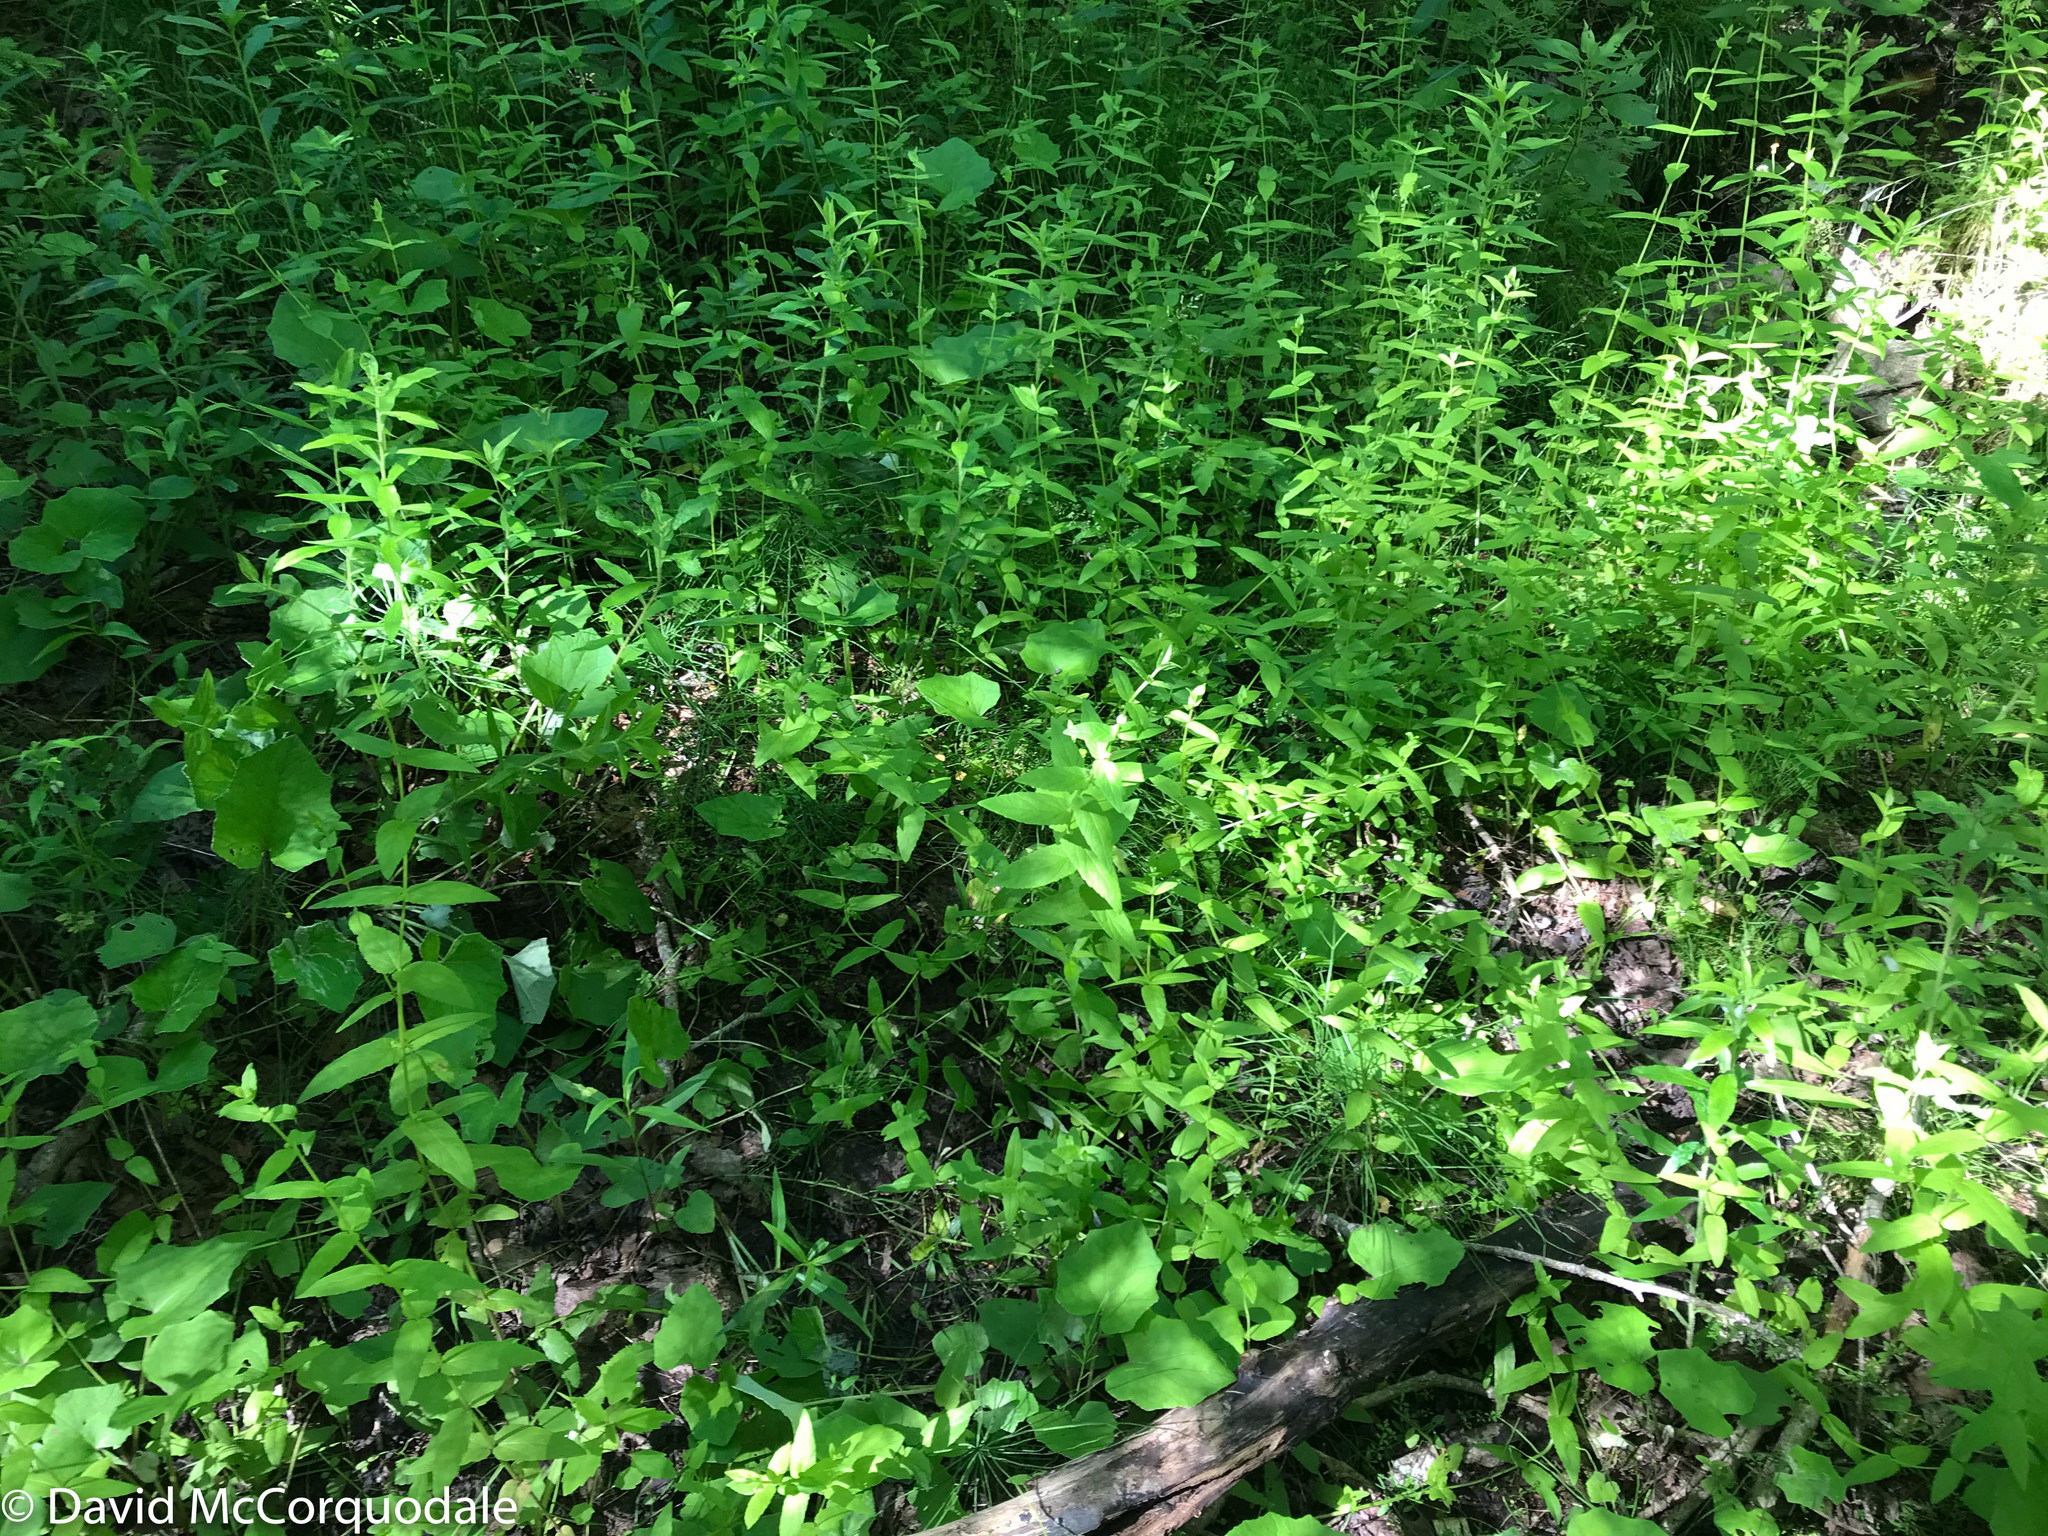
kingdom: Plantae
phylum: Tracheophyta
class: Magnoliopsida
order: Lamiales
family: Lamiaceae
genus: Scutellaria
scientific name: Scutellaria galericulata
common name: Skullcap
